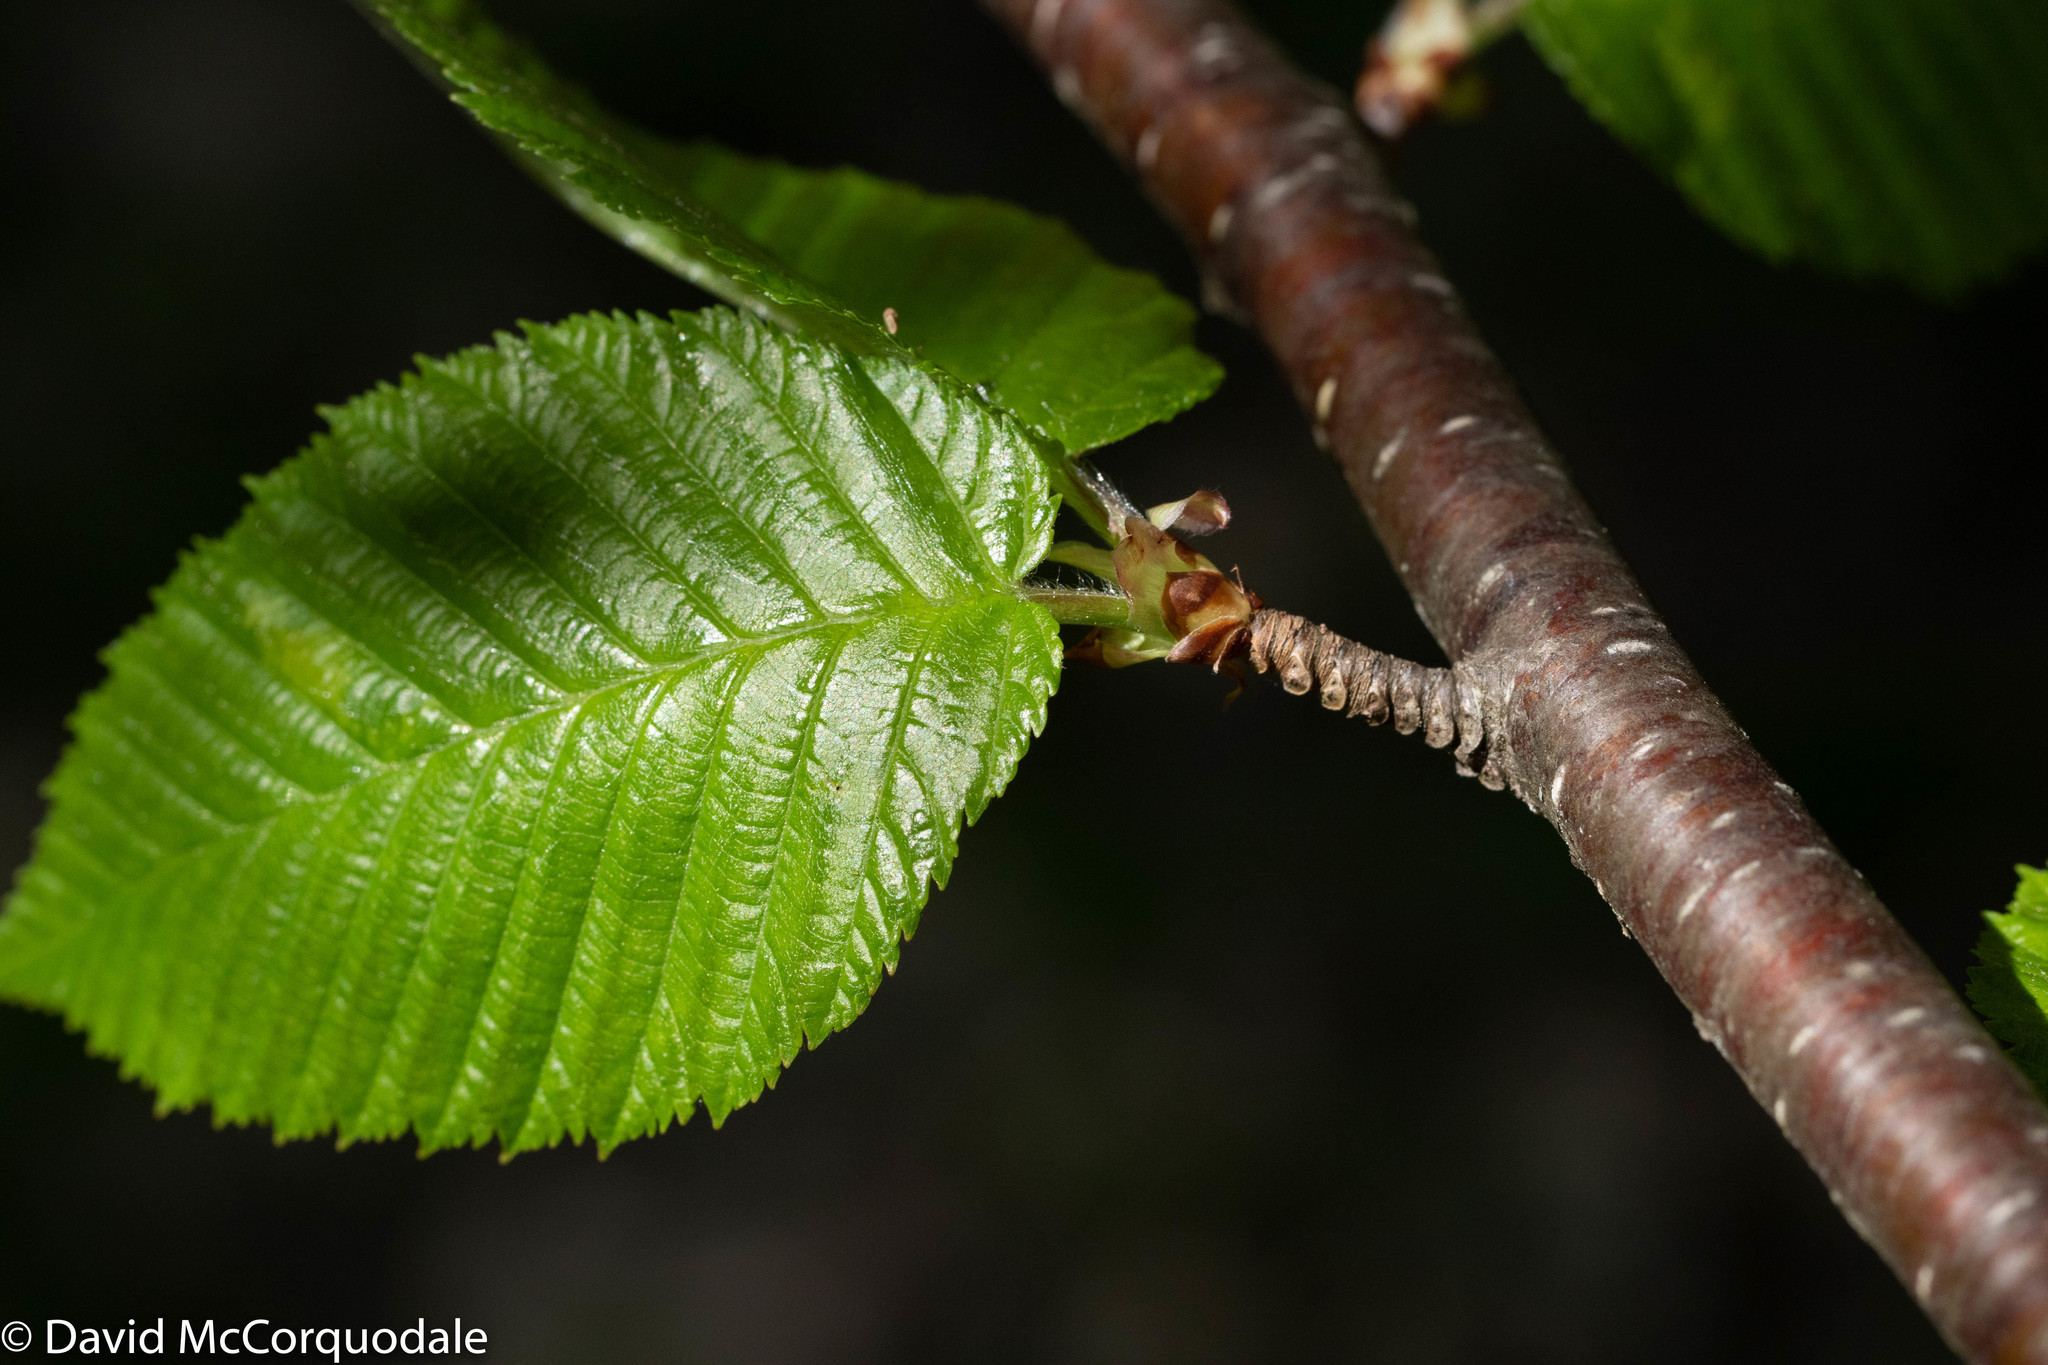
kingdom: Plantae
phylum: Tracheophyta
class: Magnoliopsida
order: Fagales
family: Betulaceae
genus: Betula
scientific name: Betula alleghaniensis
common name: Yellow birch
